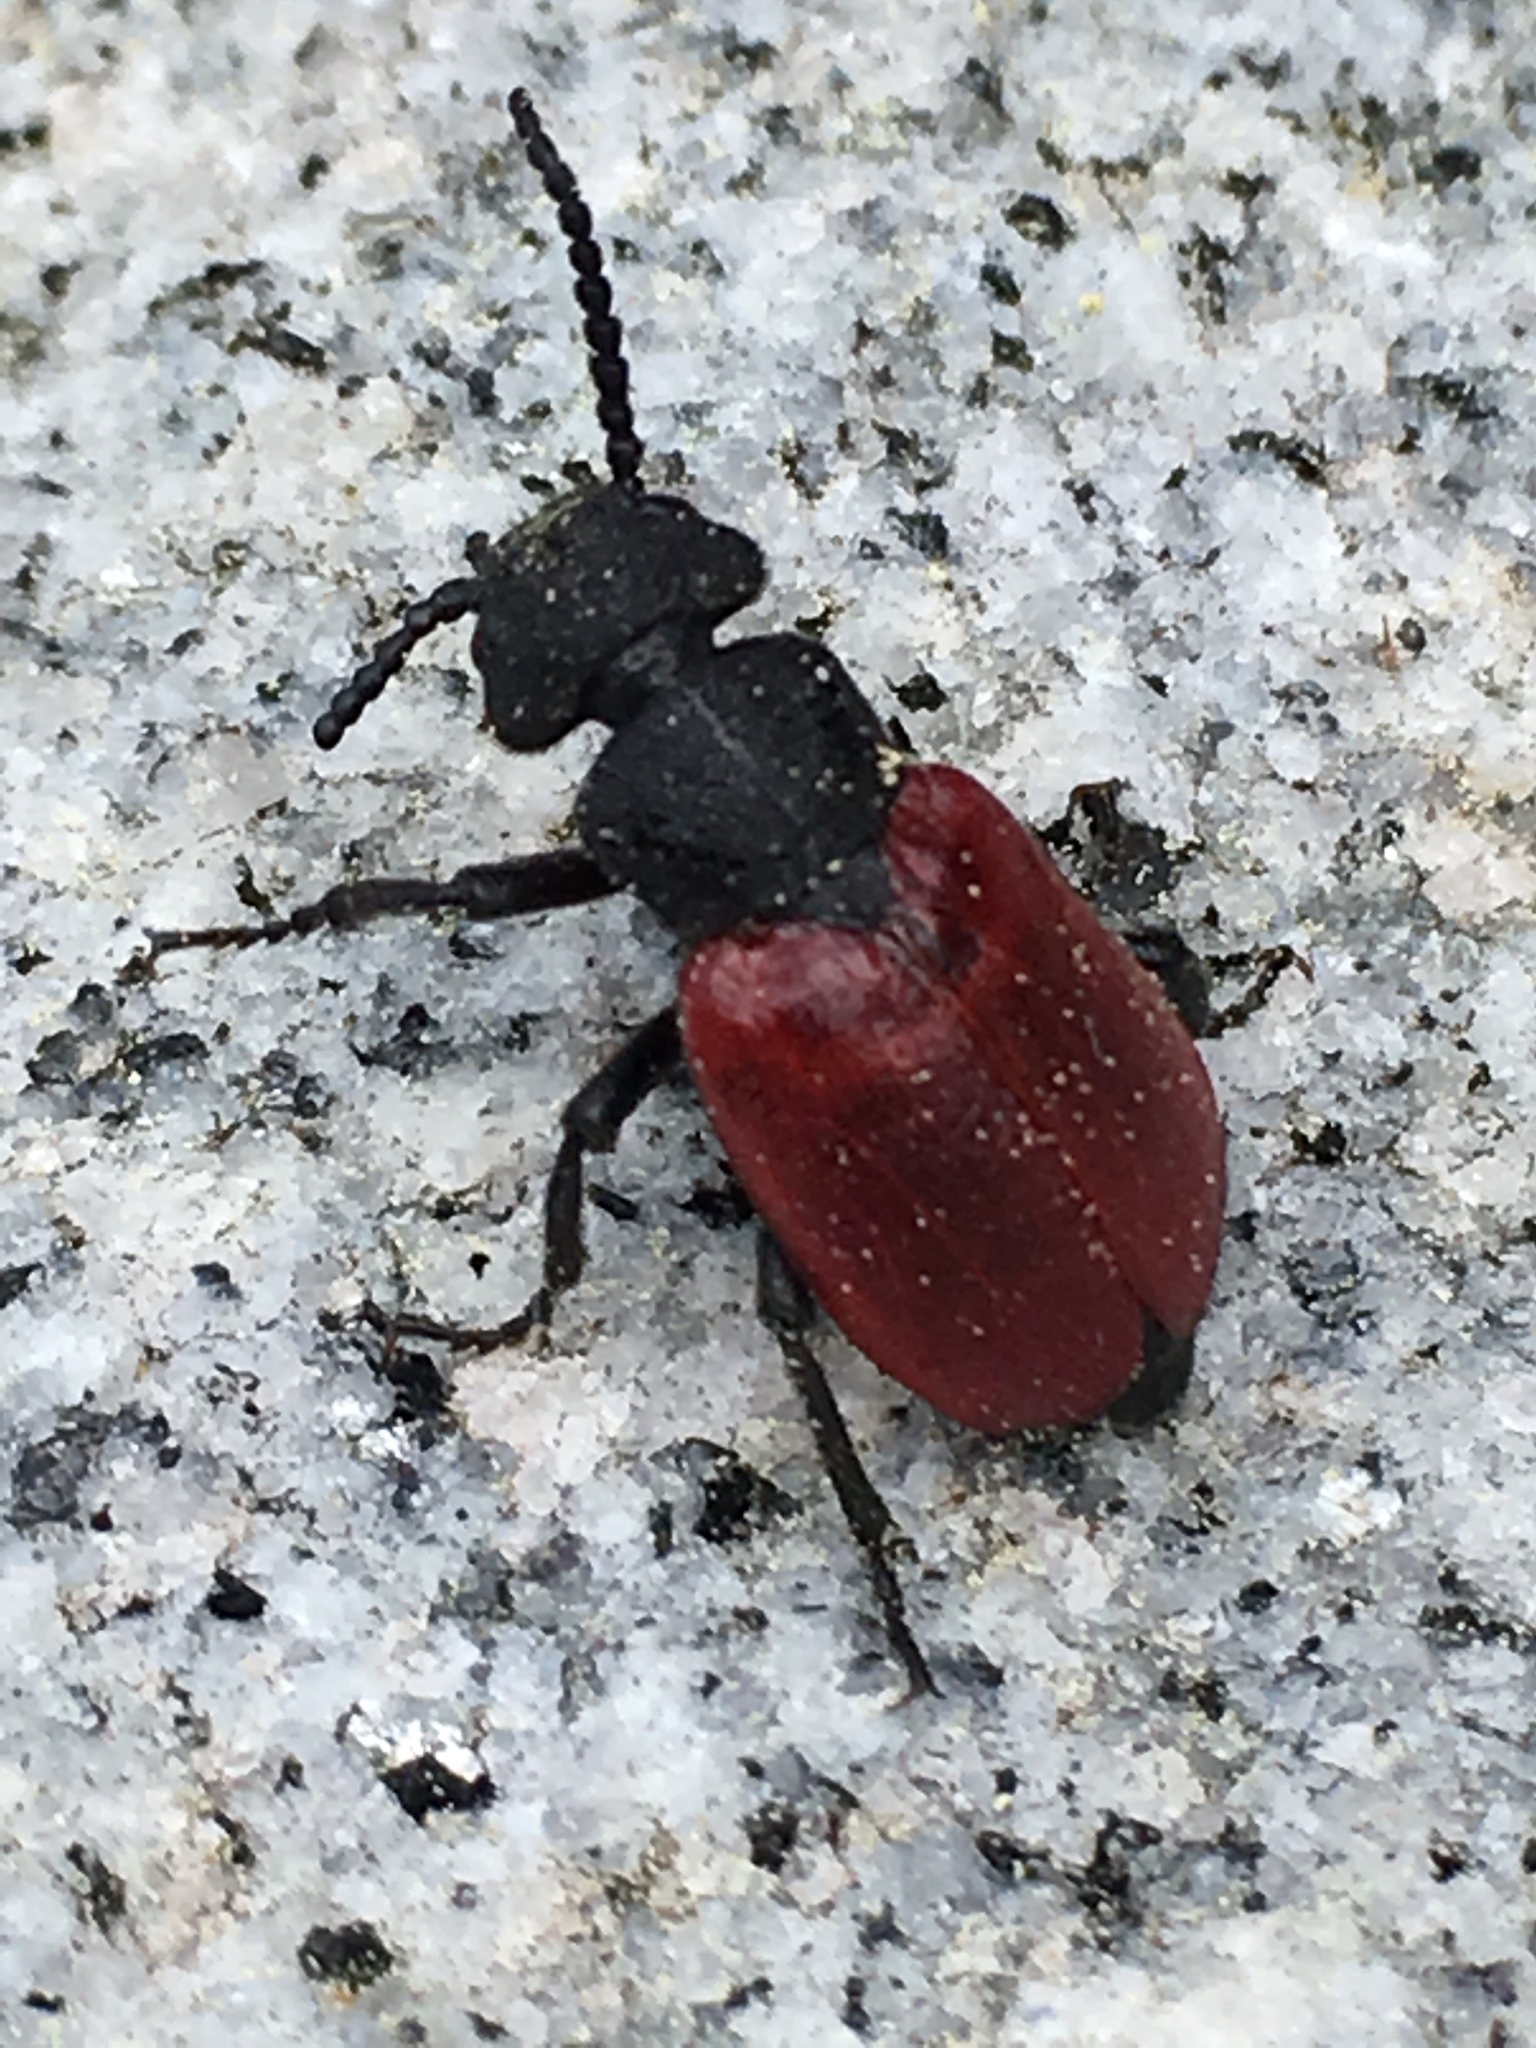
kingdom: Animalia
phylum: Arthropoda
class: Insecta
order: Coleoptera
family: Meloidae
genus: Tricrania
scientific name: Tricrania sanguinipennis
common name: Blood-winged blister beetle
